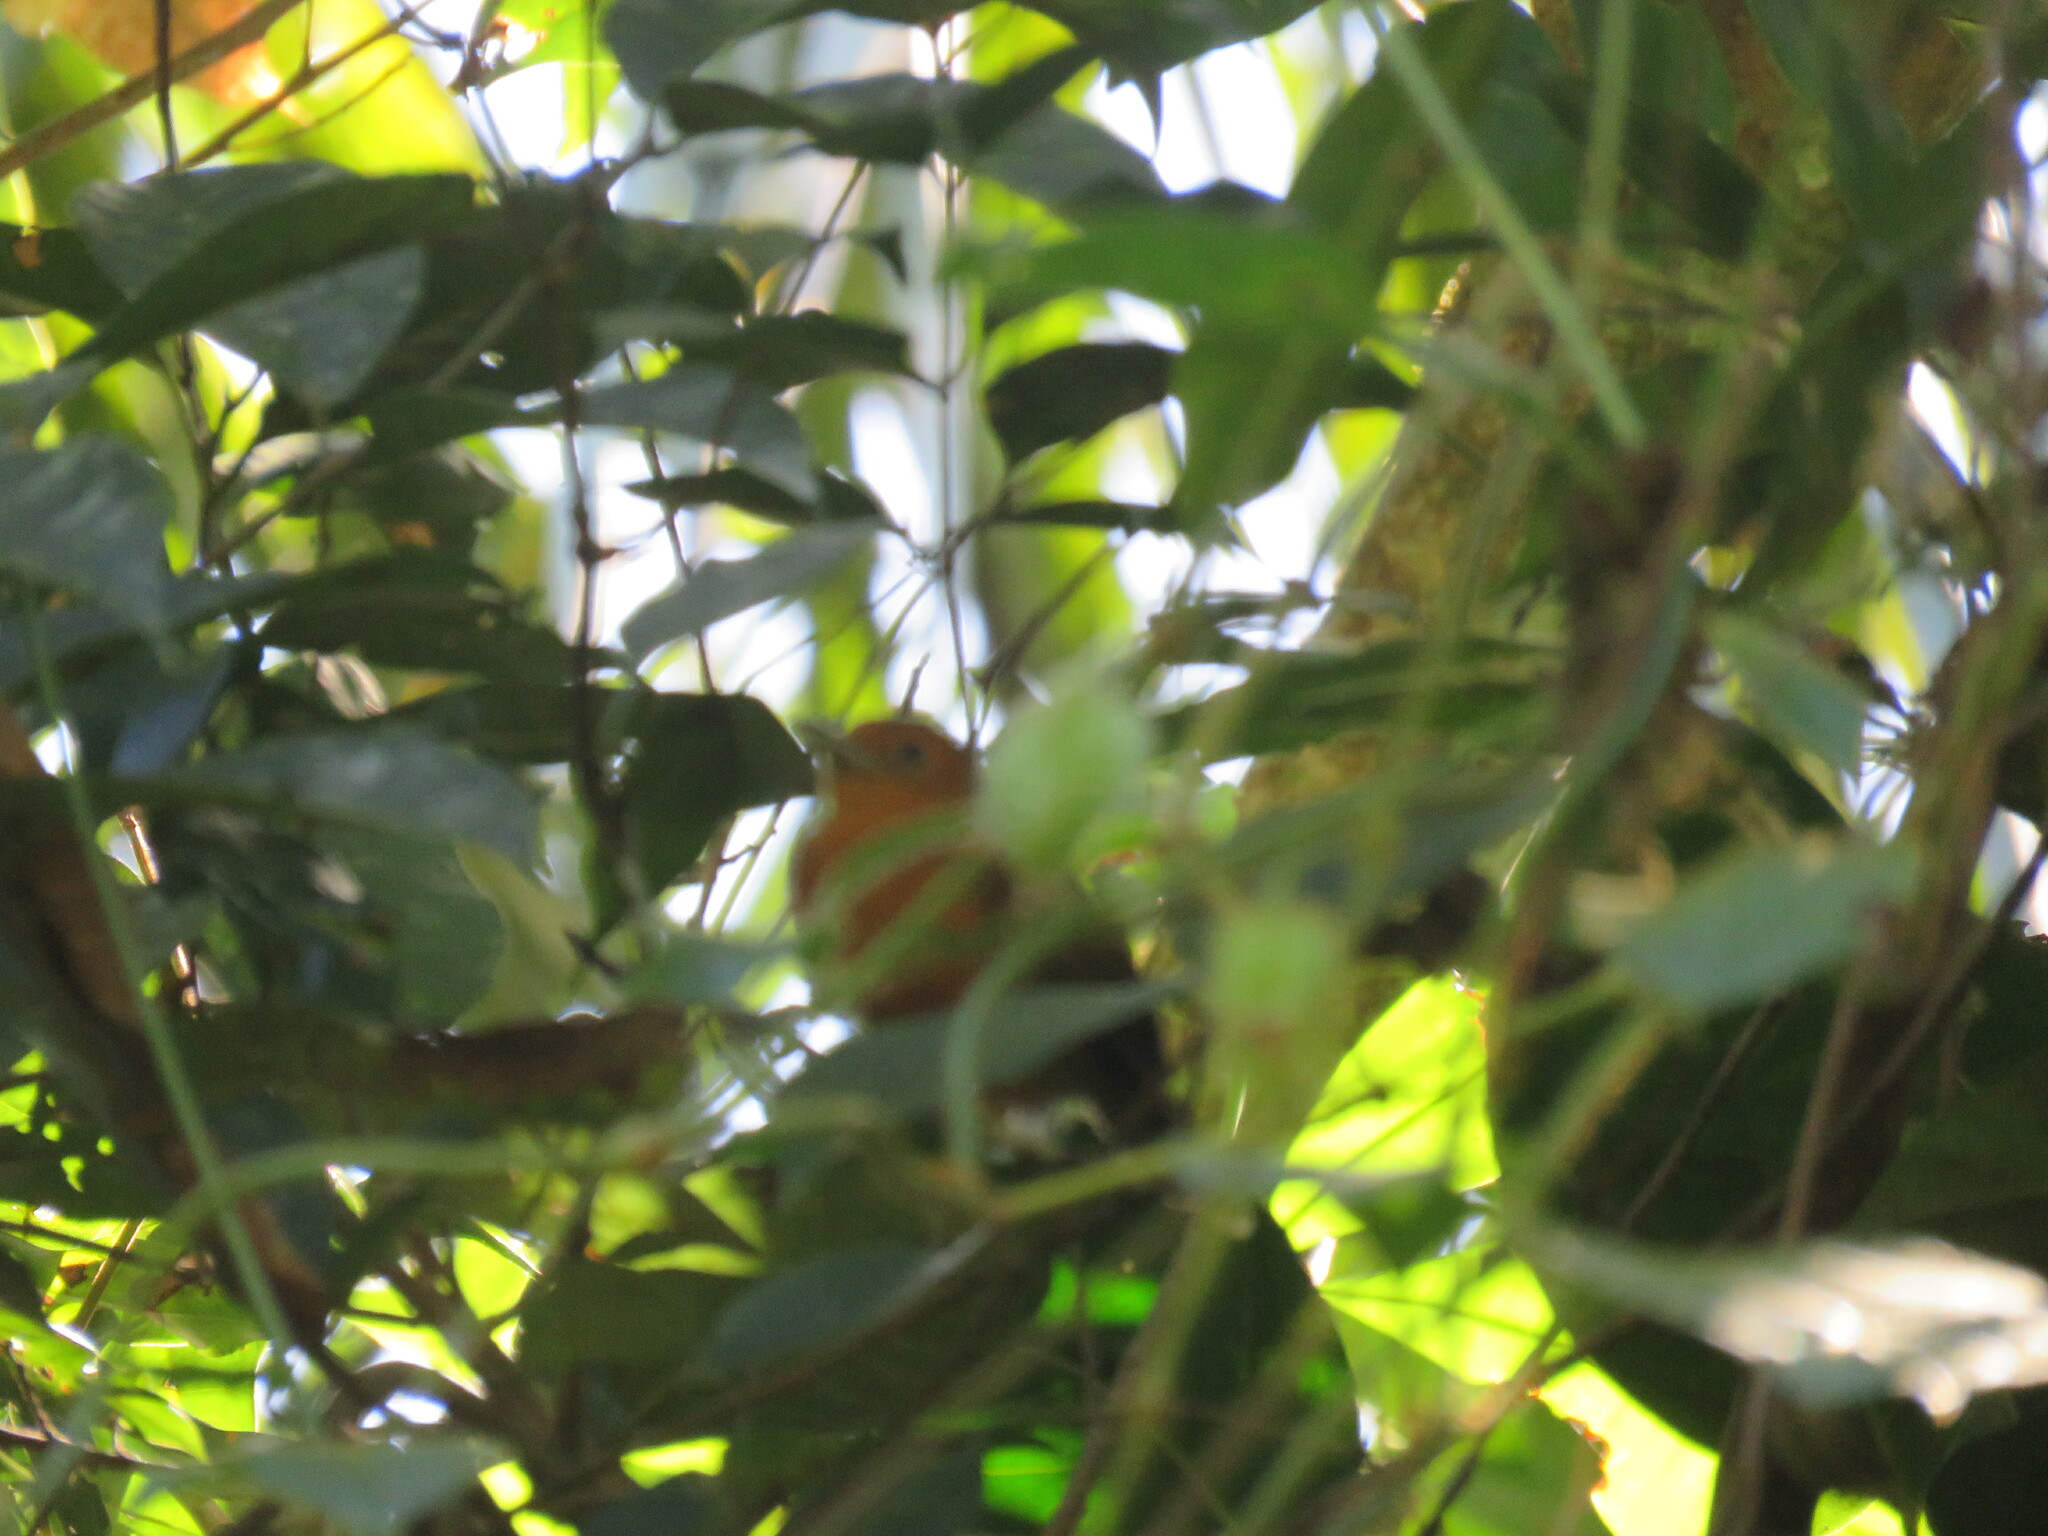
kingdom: Animalia
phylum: Chordata
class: Aves
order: Passeriformes
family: Thamnophilidae
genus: Schistocichla
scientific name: Schistocichla humaythae
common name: Humaita antbird
